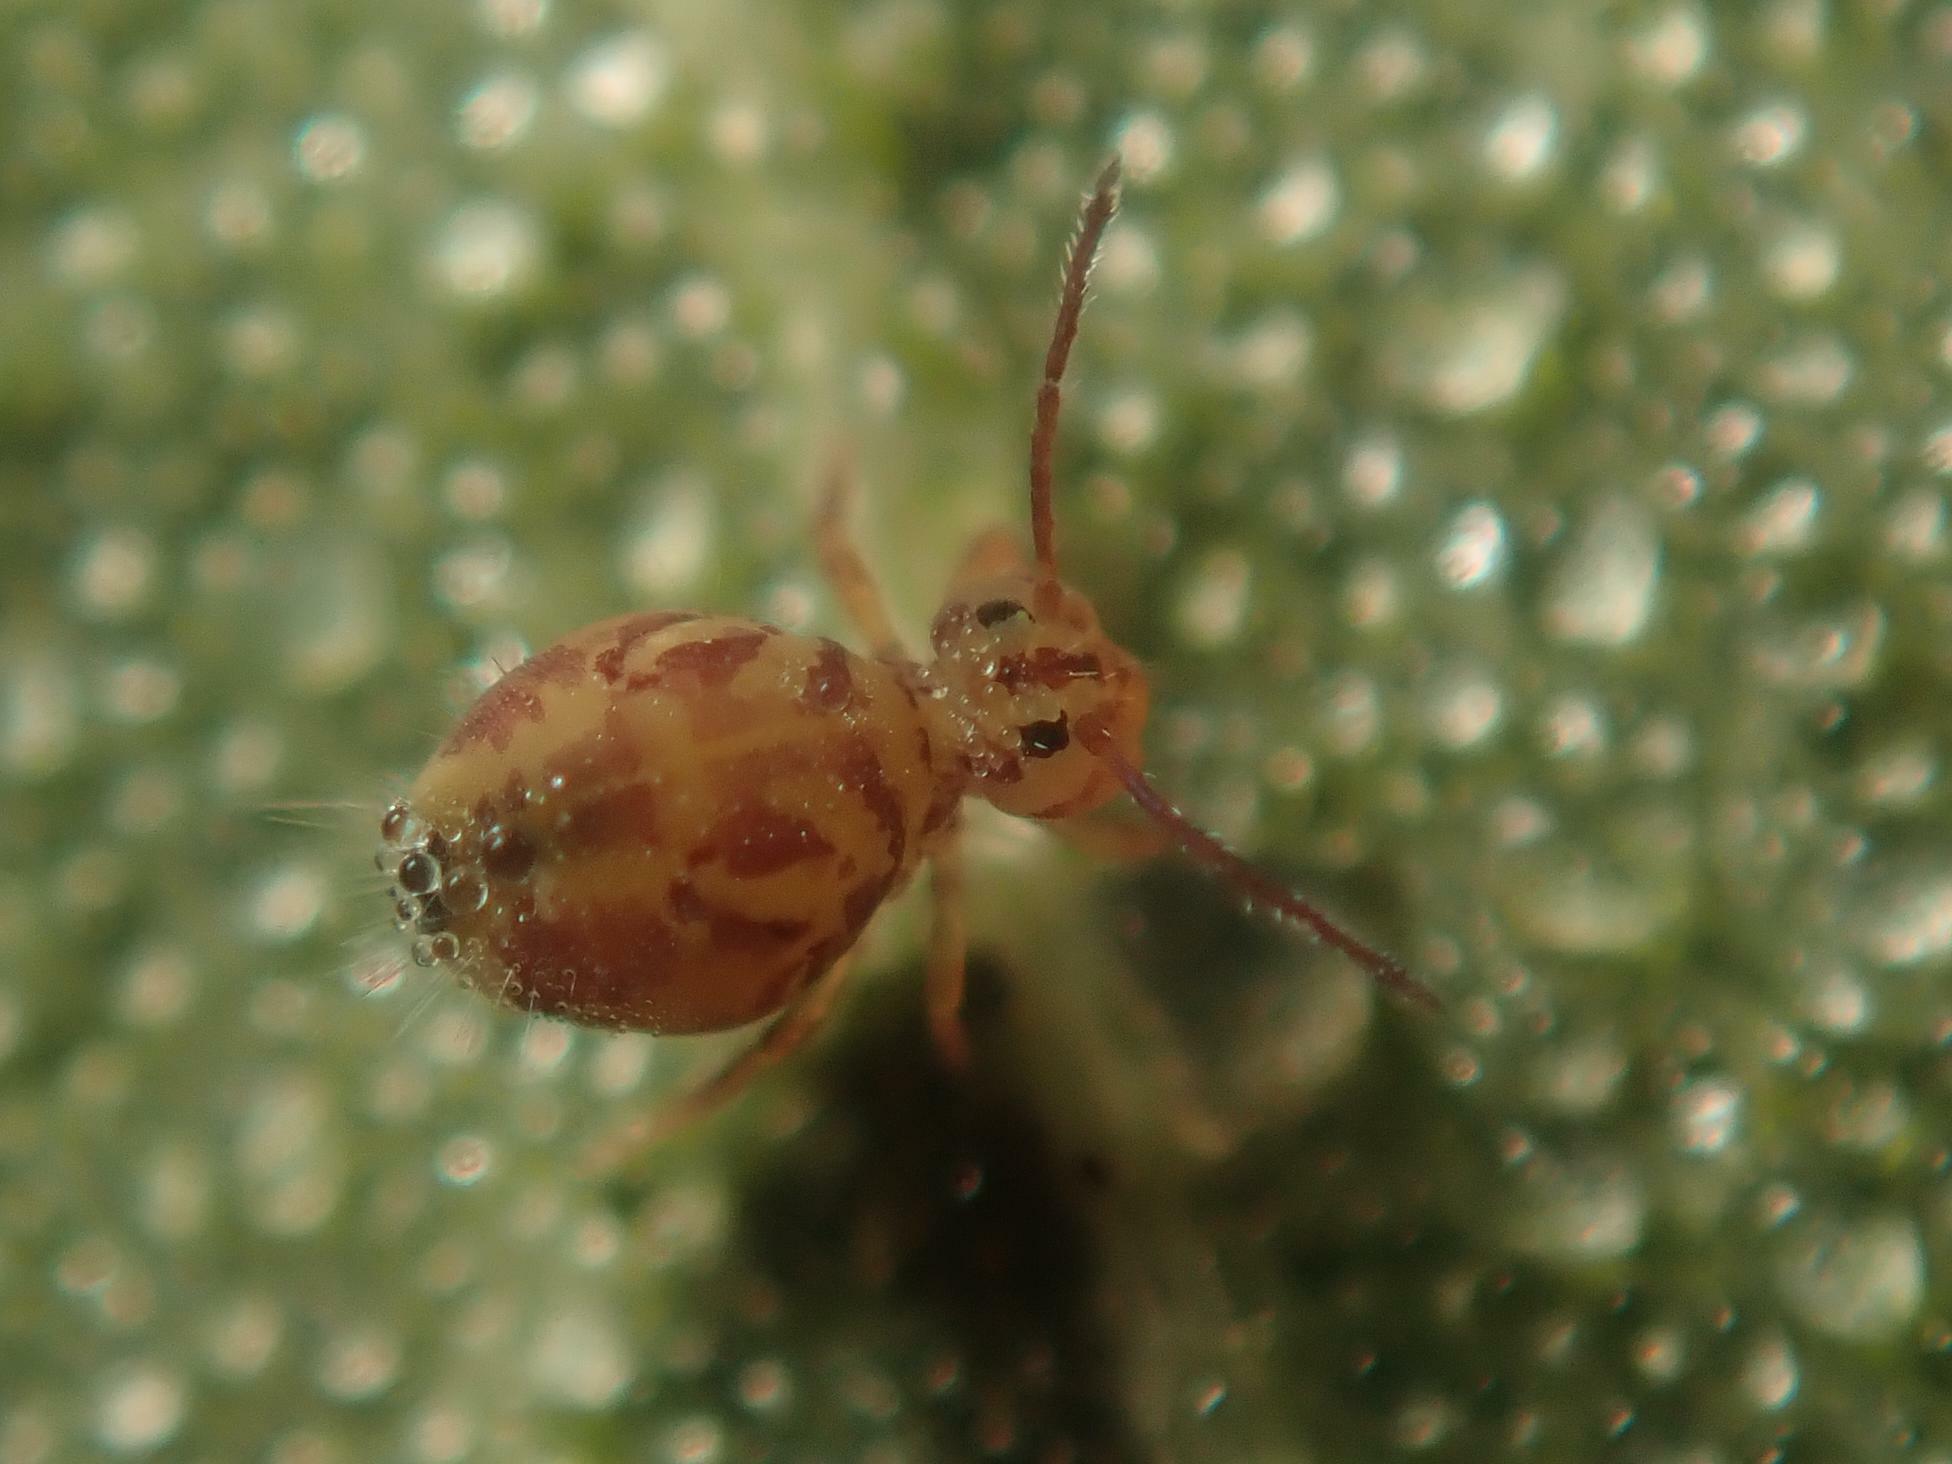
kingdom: Animalia
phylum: Arthropoda
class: Collembola
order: Symphypleona
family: Dicyrtomidae
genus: Dicyrtomina
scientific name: Dicyrtomina ornata
